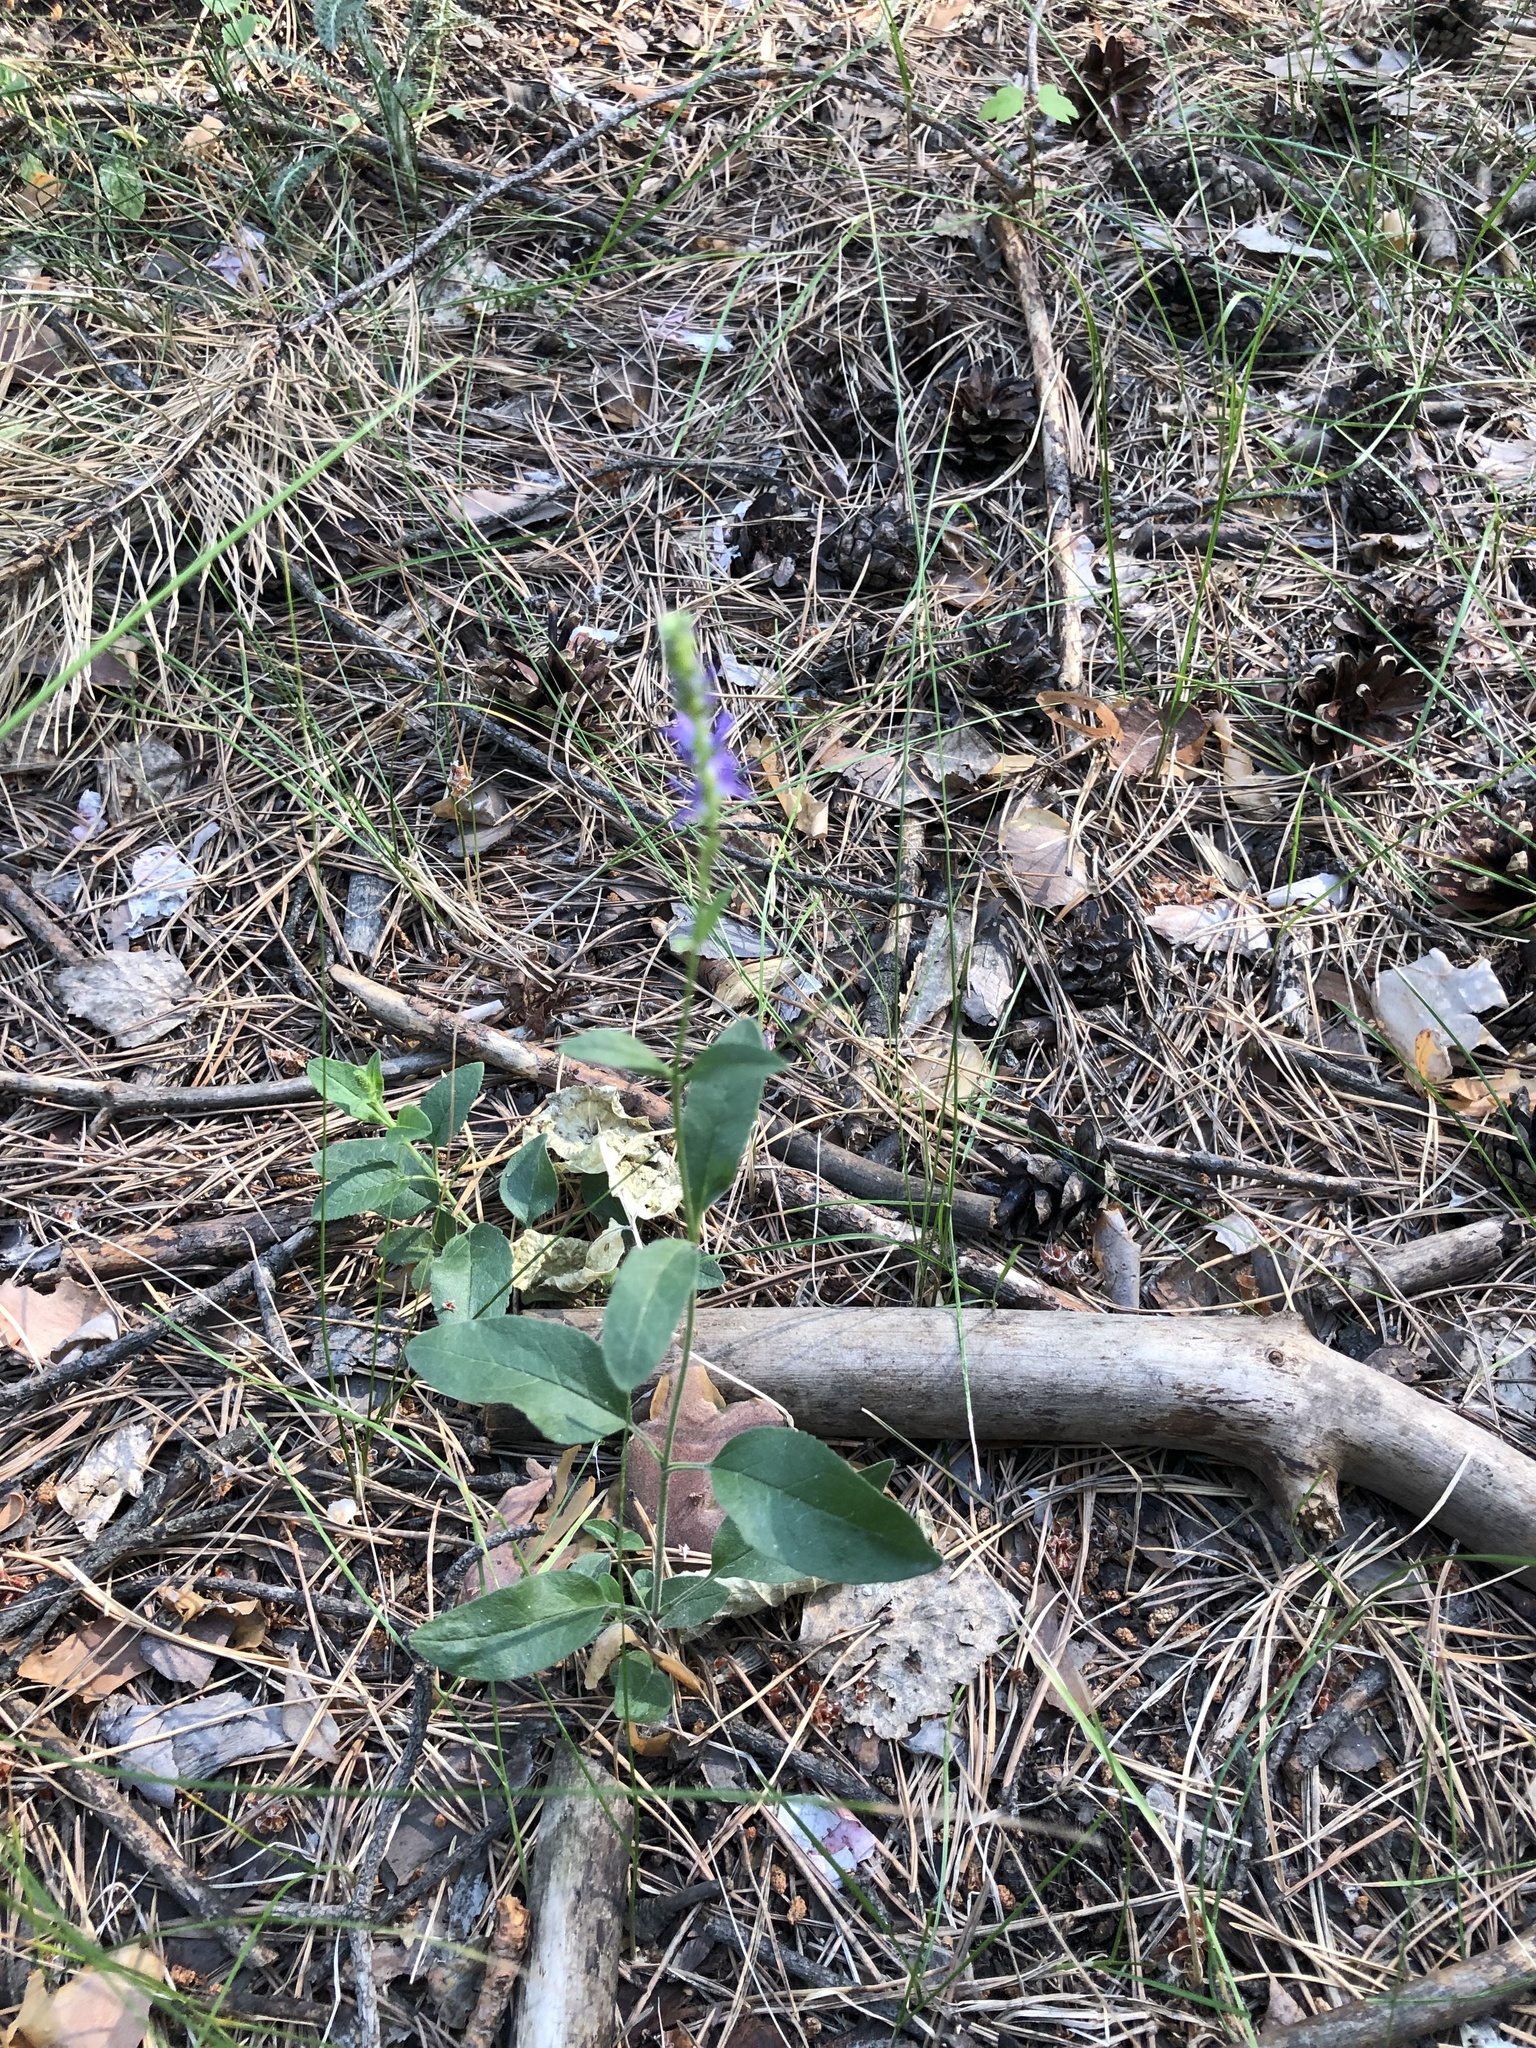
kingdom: Plantae
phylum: Tracheophyta
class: Magnoliopsida
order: Lamiales
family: Plantaginaceae
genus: Veronica
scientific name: Veronica spicata
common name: Spiked speedwell
